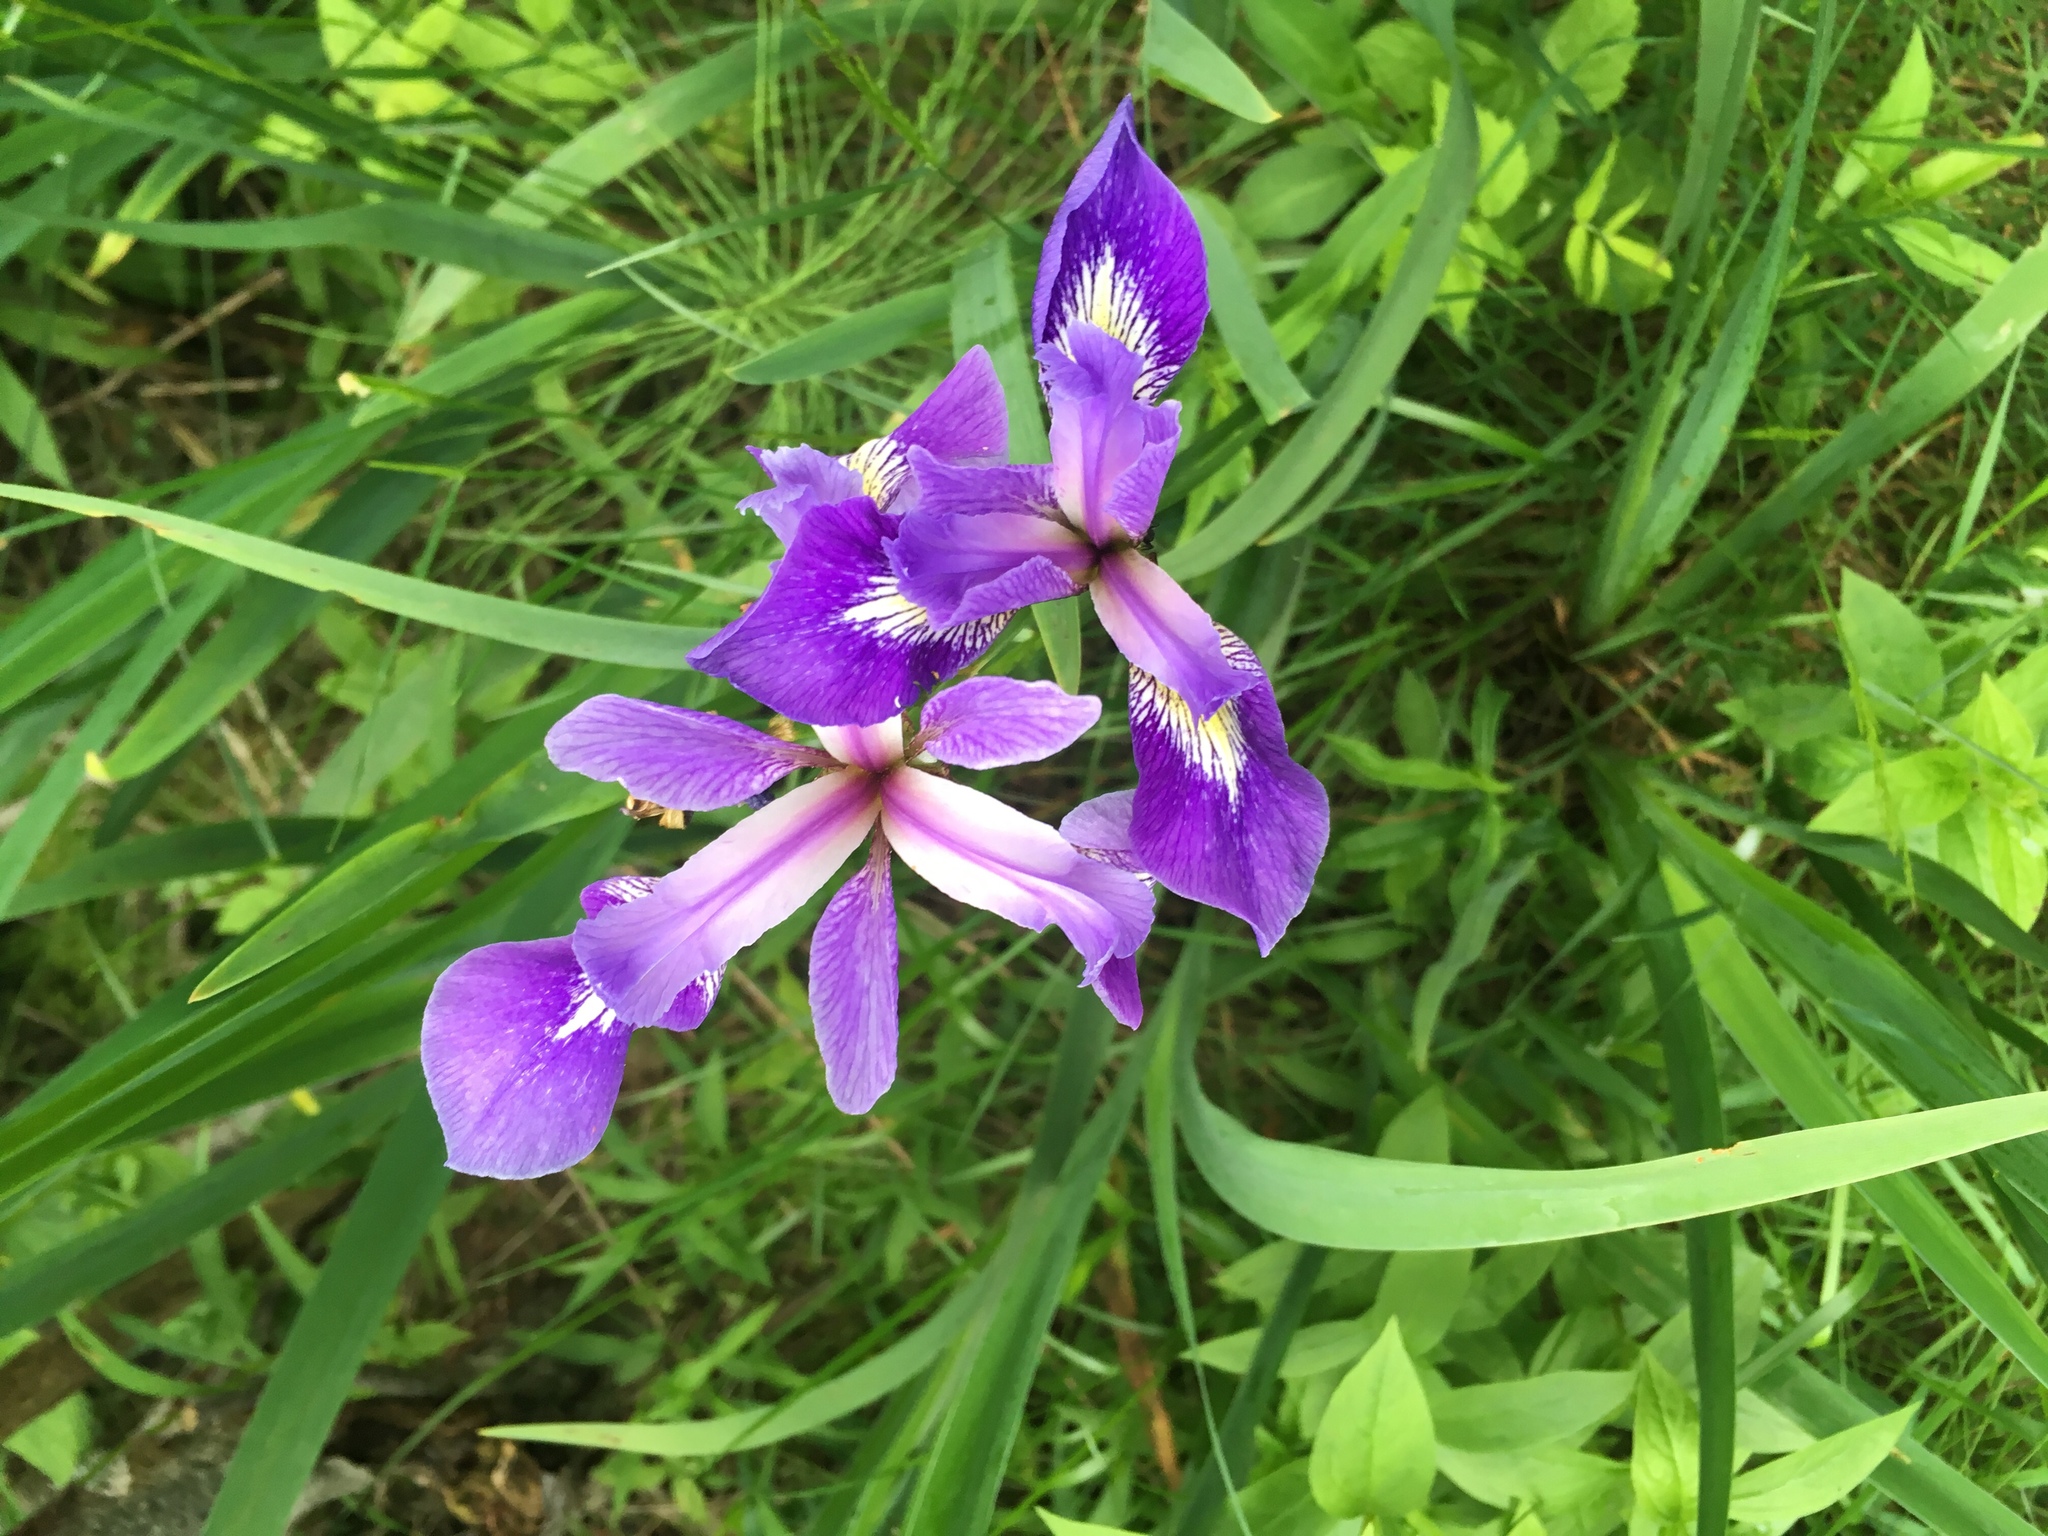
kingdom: Plantae
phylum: Tracheophyta
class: Liliopsida
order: Asparagales
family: Iridaceae
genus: Iris
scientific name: Iris versicolor
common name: Purple iris
